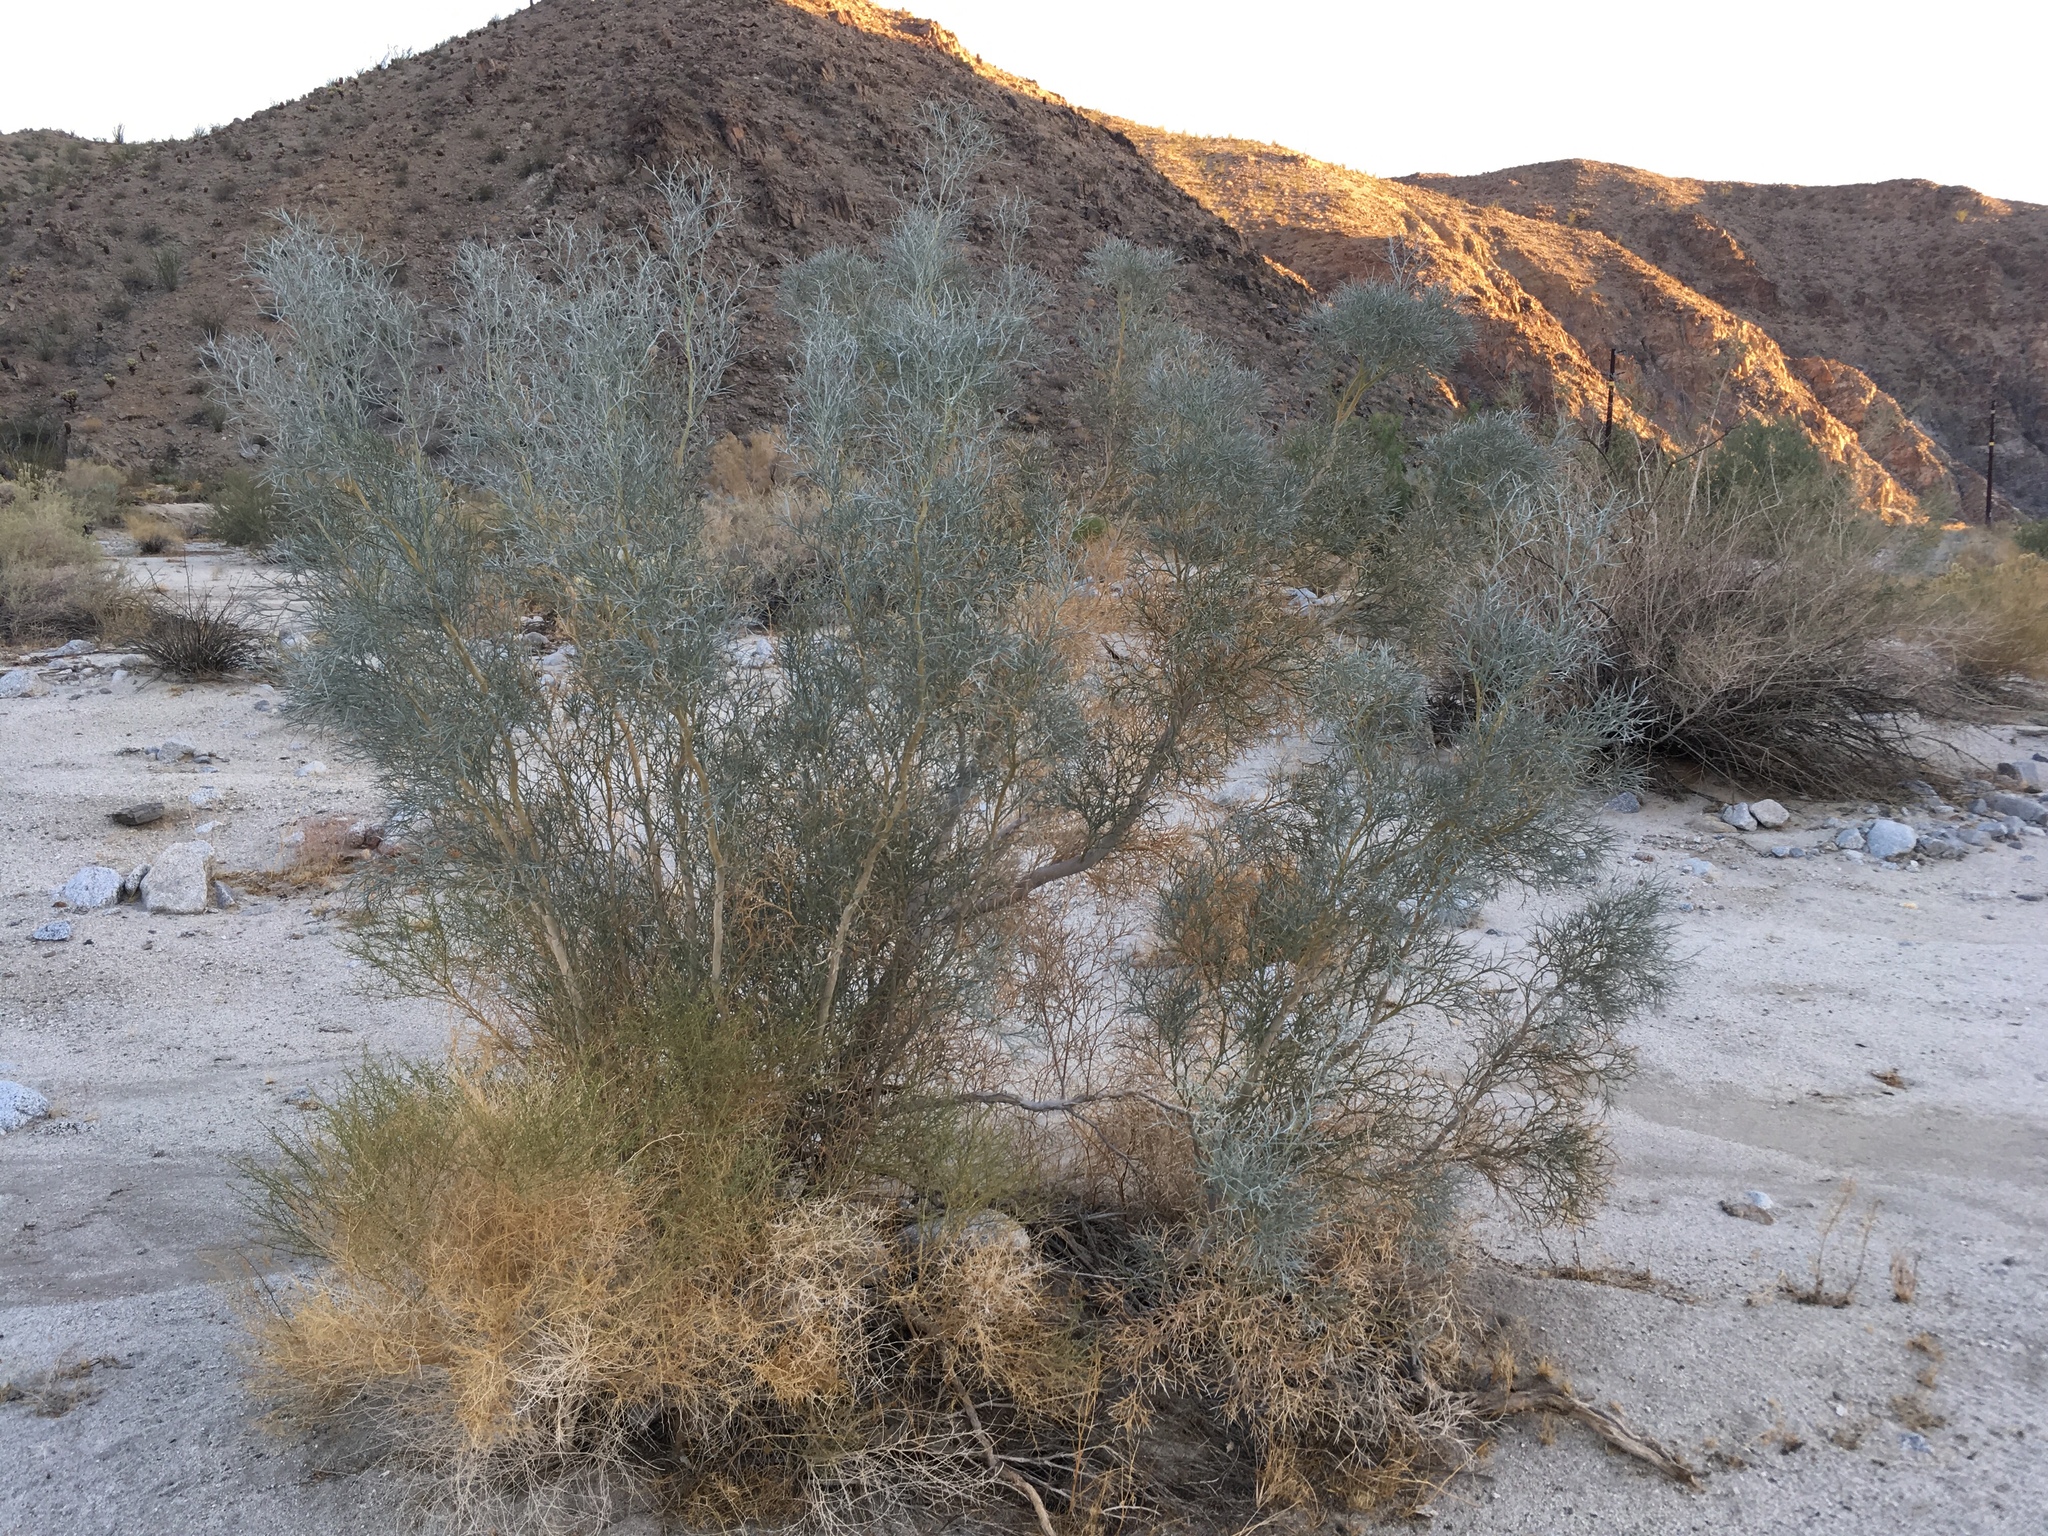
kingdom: Plantae
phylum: Tracheophyta
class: Magnoliopsida
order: Fabales
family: Fabaceae
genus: Psorothamnus
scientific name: Psorothamnus spinosus
